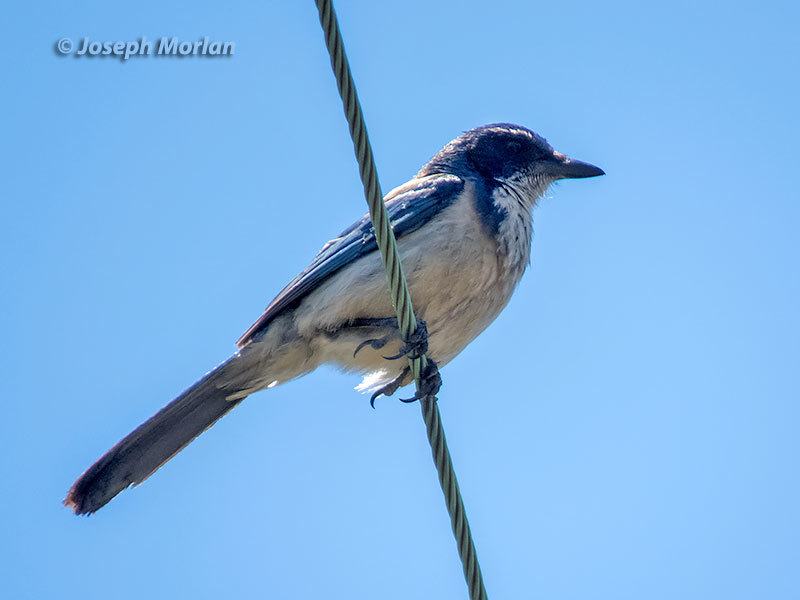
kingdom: Animalia
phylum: Chordata
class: Aves
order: Passeriformes
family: Corvidae
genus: Aphelocoma
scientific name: Aphelocoma californica
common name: California scrub-jay
